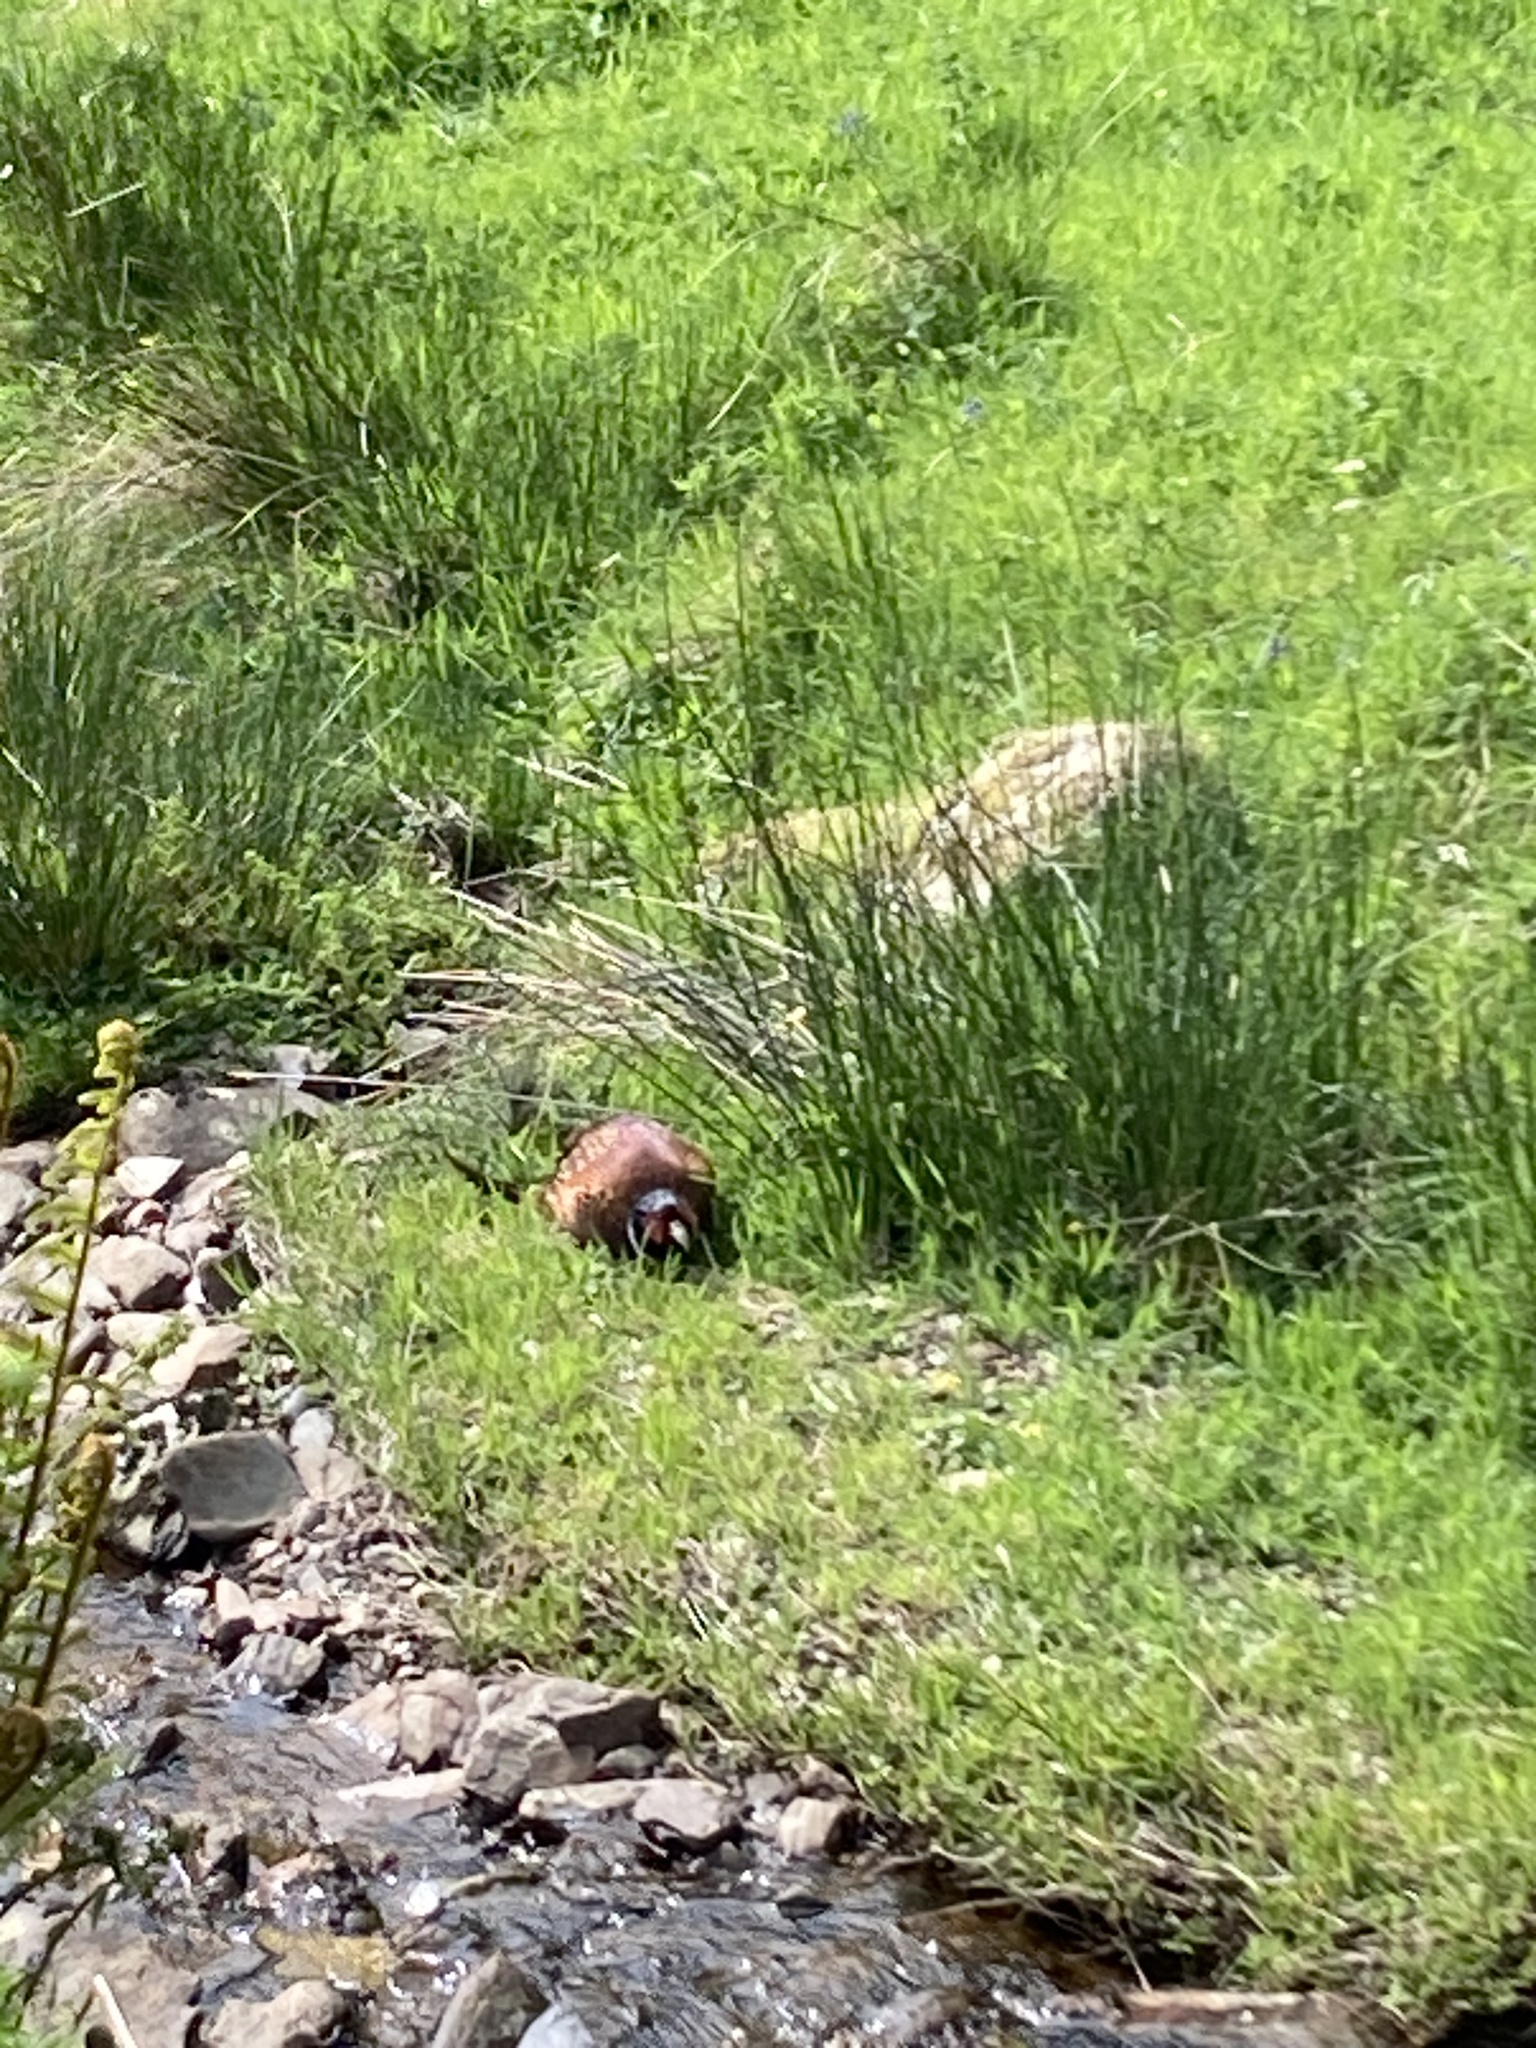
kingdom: Animalia
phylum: Chordata
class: Aves
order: Galliformes
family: Phasianidae
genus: Phasianus
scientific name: Phasianus colchicus
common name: Common pheasant
